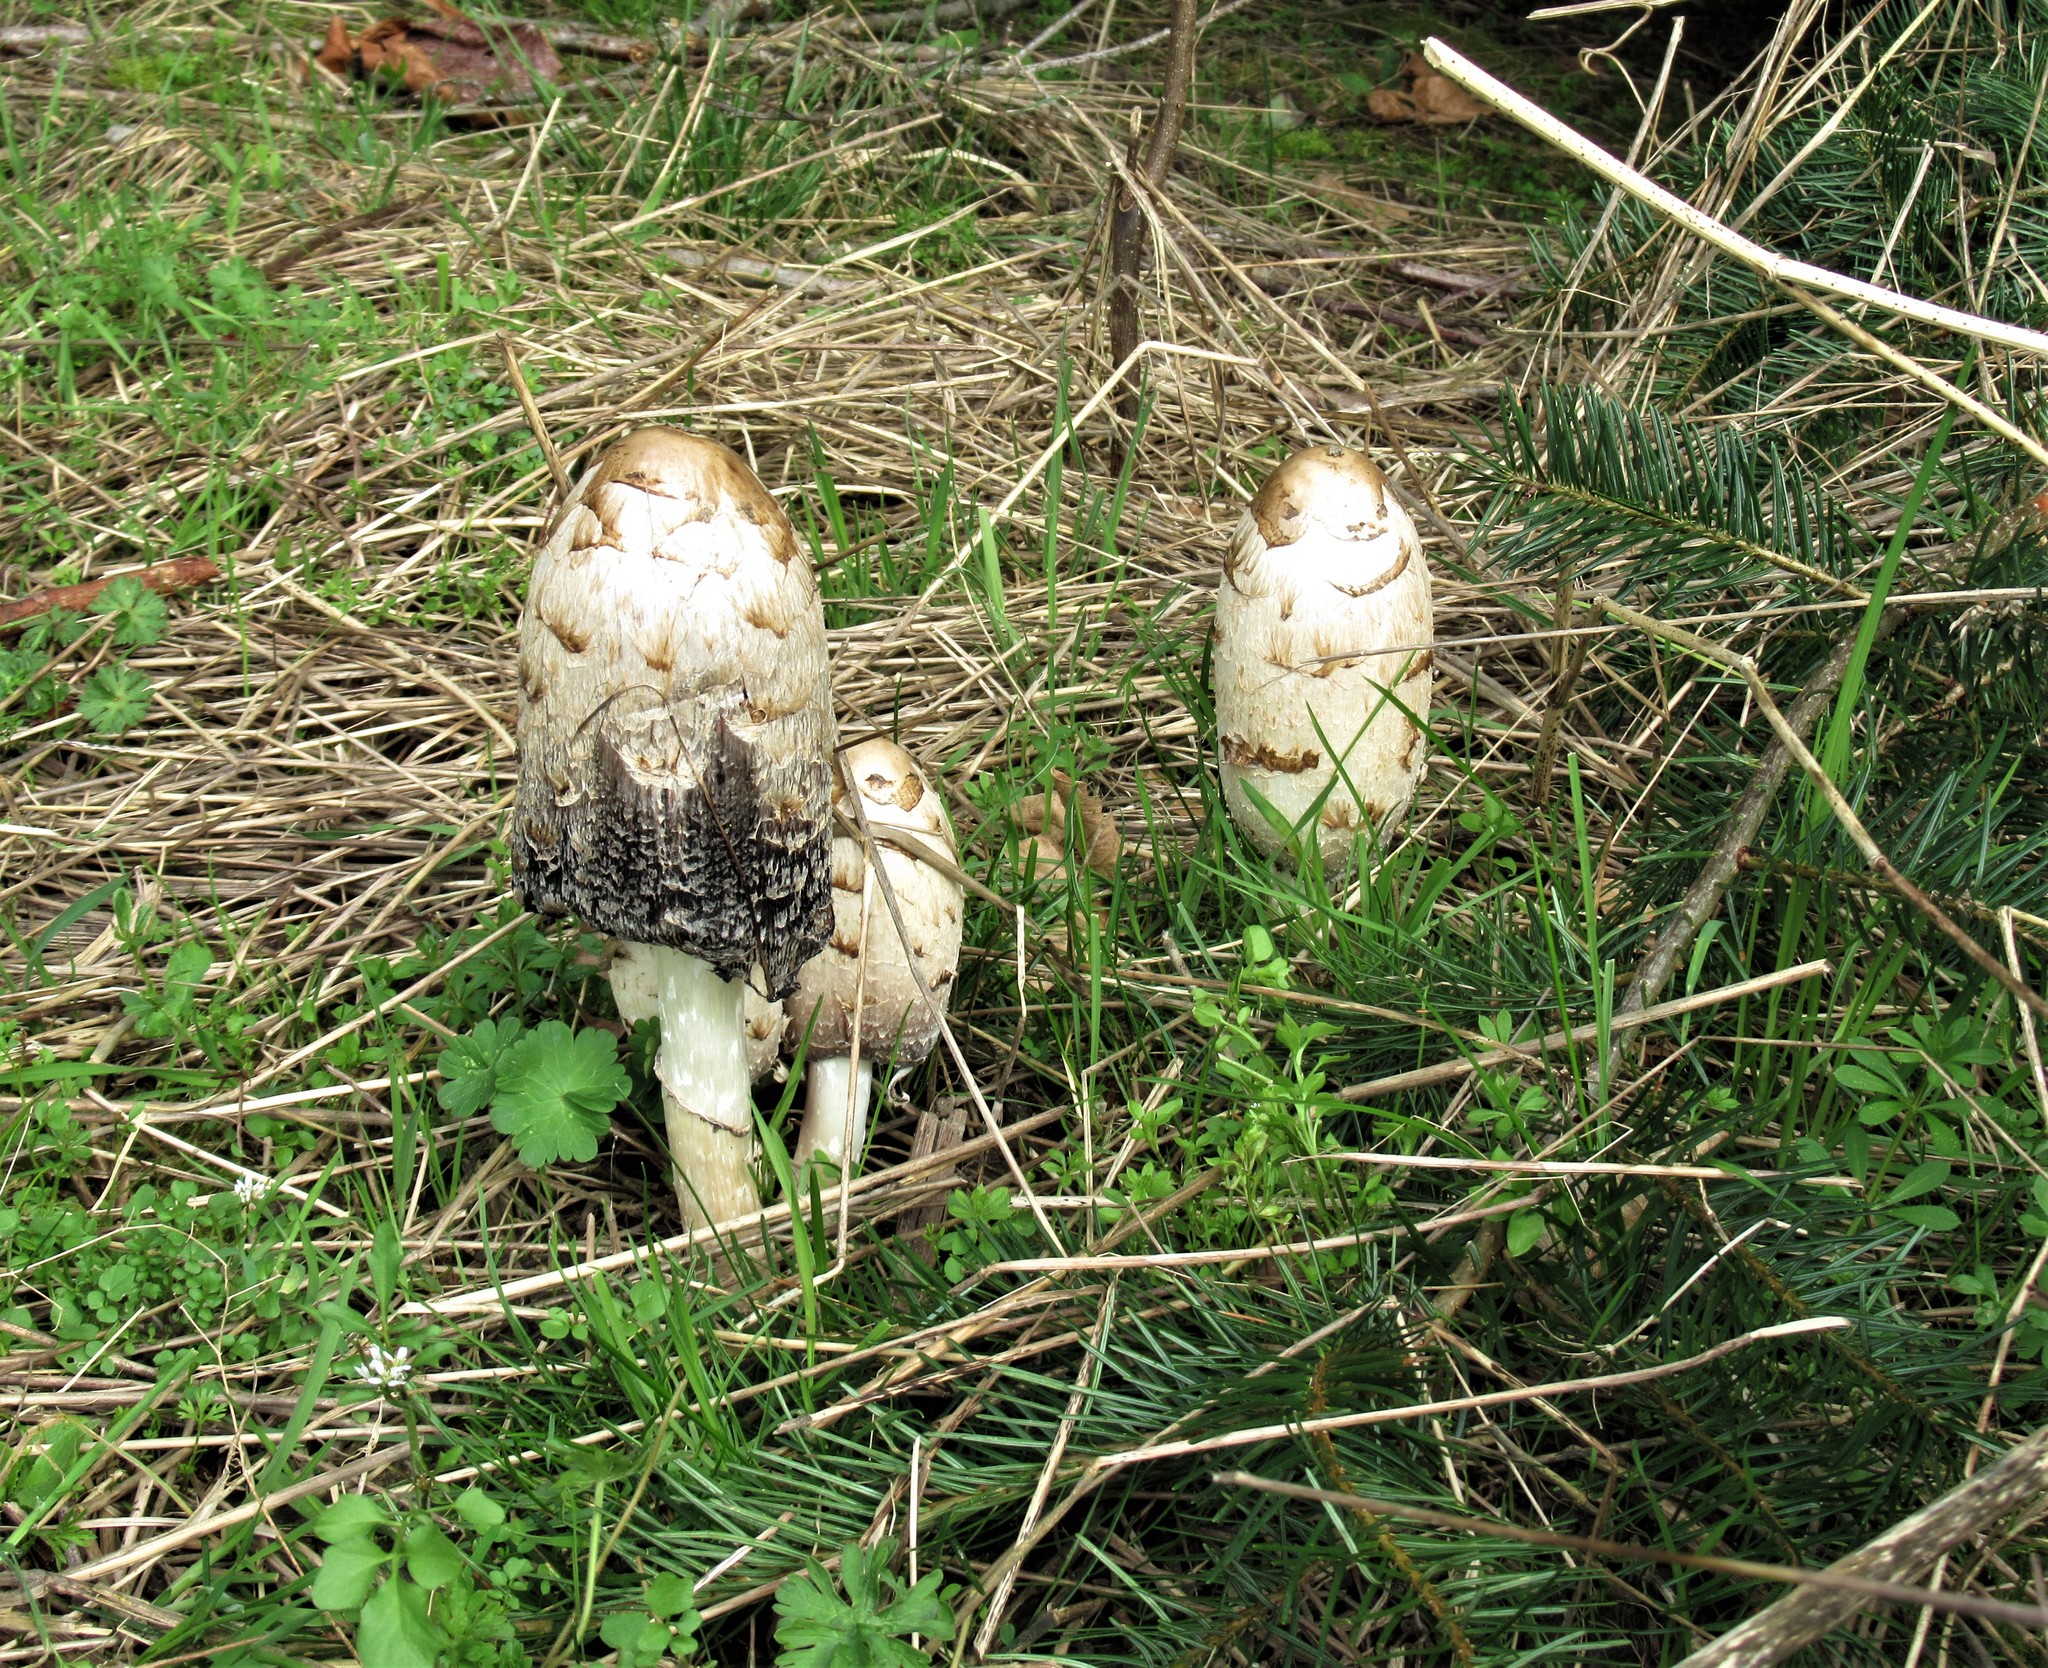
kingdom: Fungi
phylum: Basidiomycota
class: Agaricomycetes
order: Agaricales
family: Agaricaceae
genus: Coprinus
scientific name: Coprinus comatus
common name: Lawyer's wig
